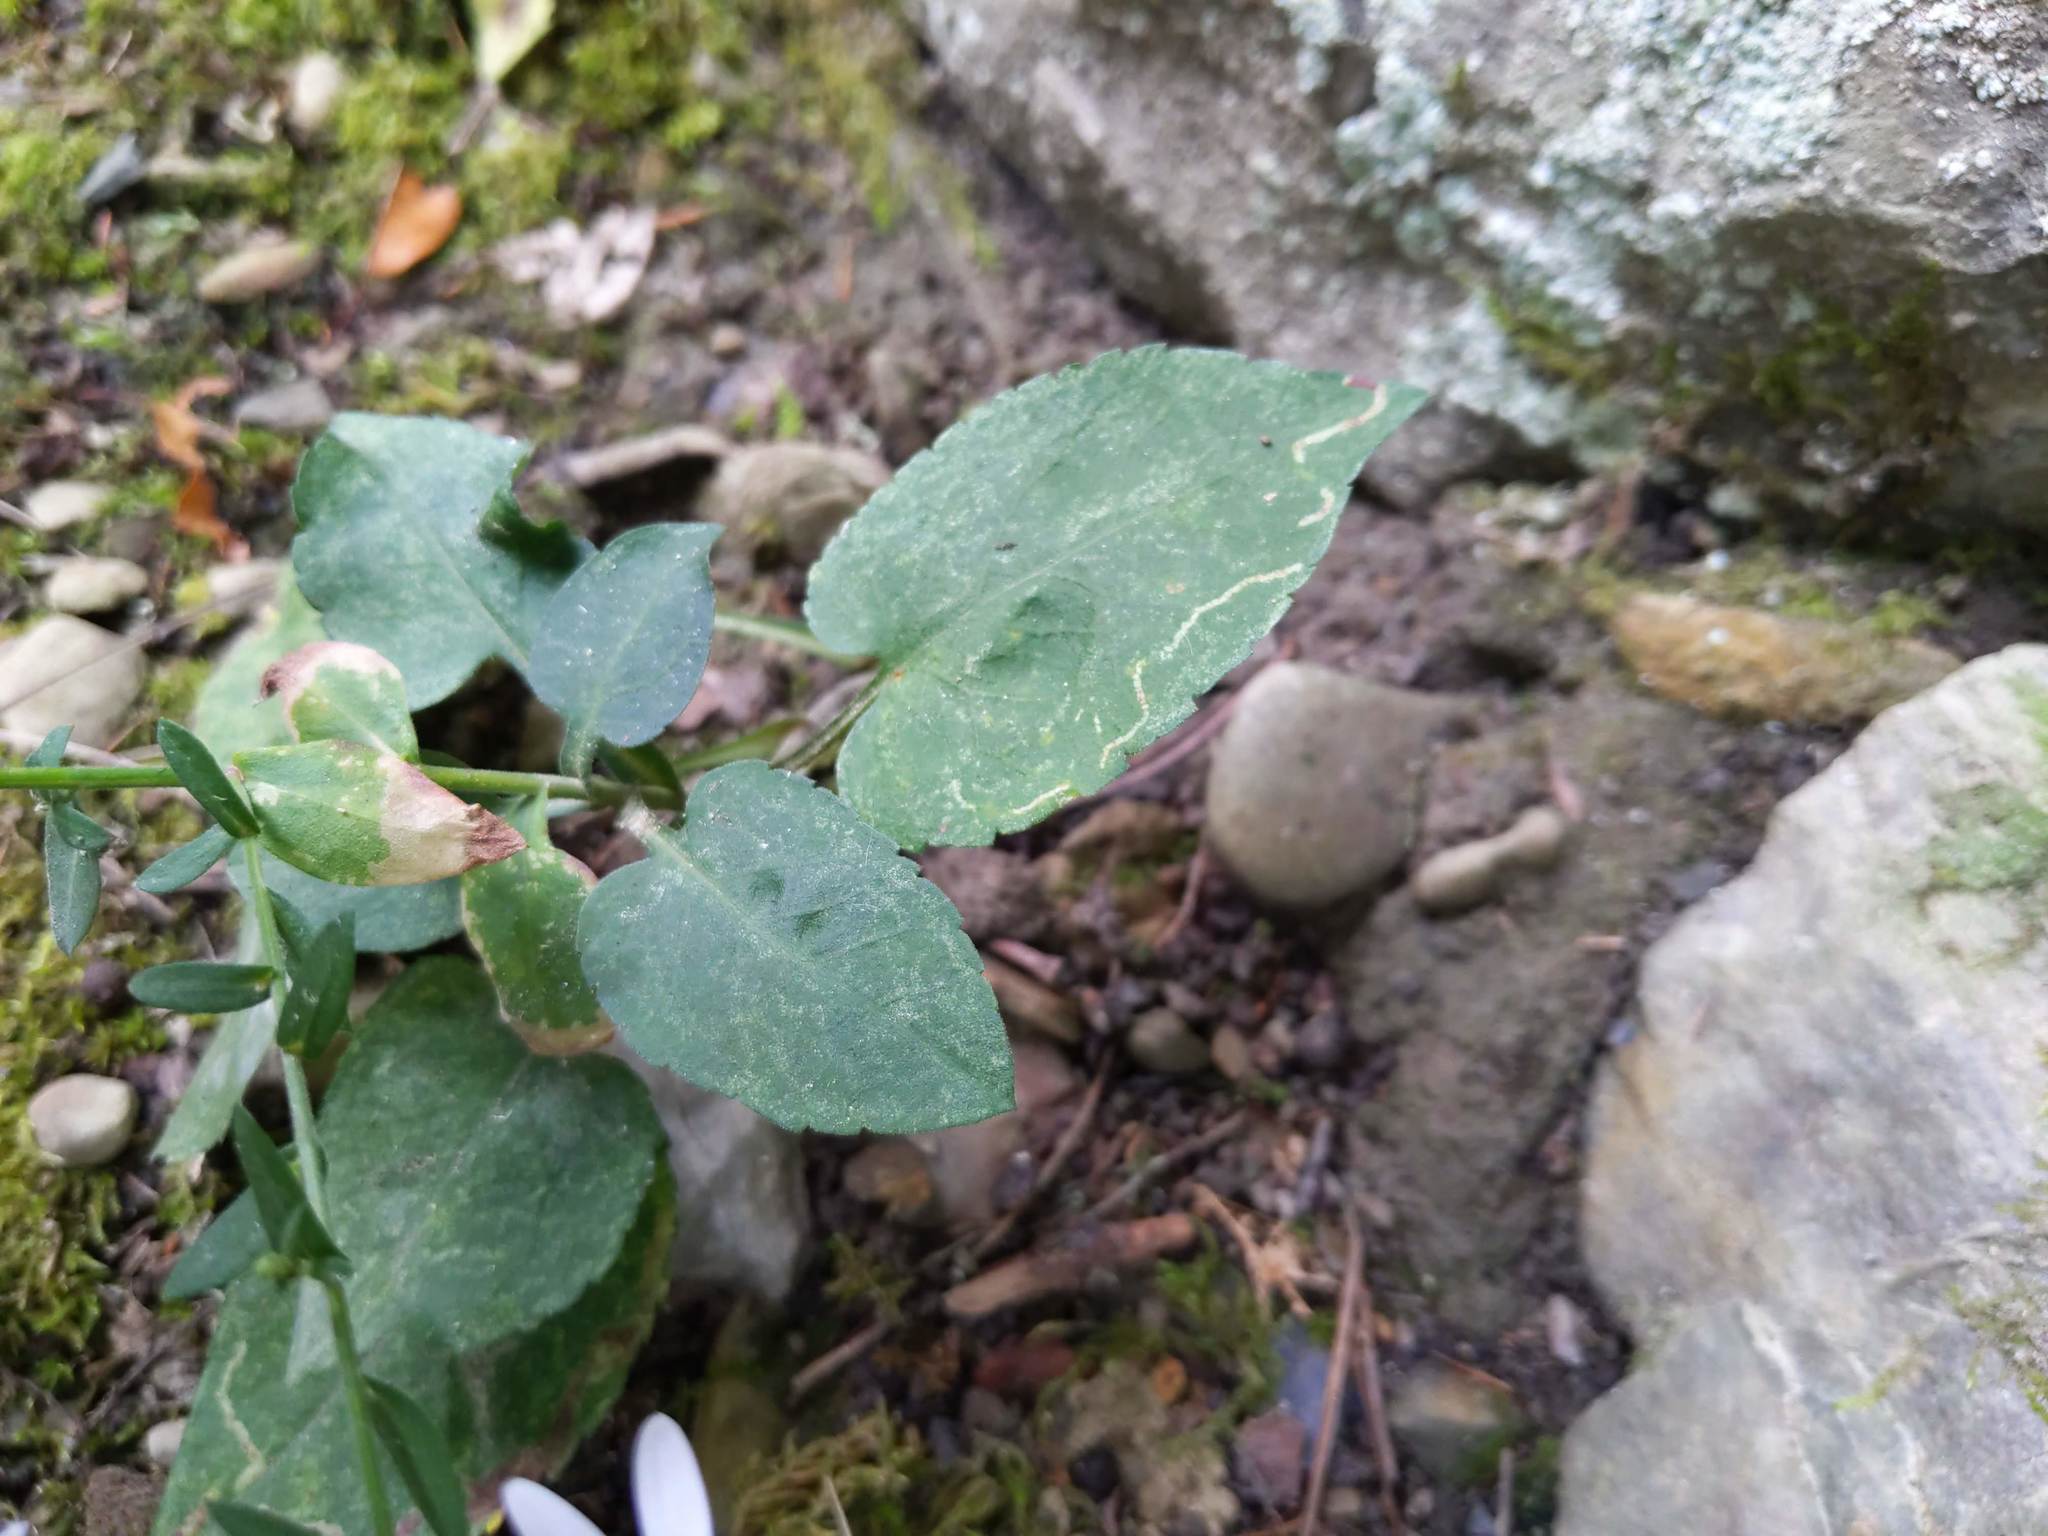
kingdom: Animalia
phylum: Arthropoda
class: Insecta
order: Diptera
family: Agromyzidae
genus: Ophiomyia
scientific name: Ophiomyia asterovora
